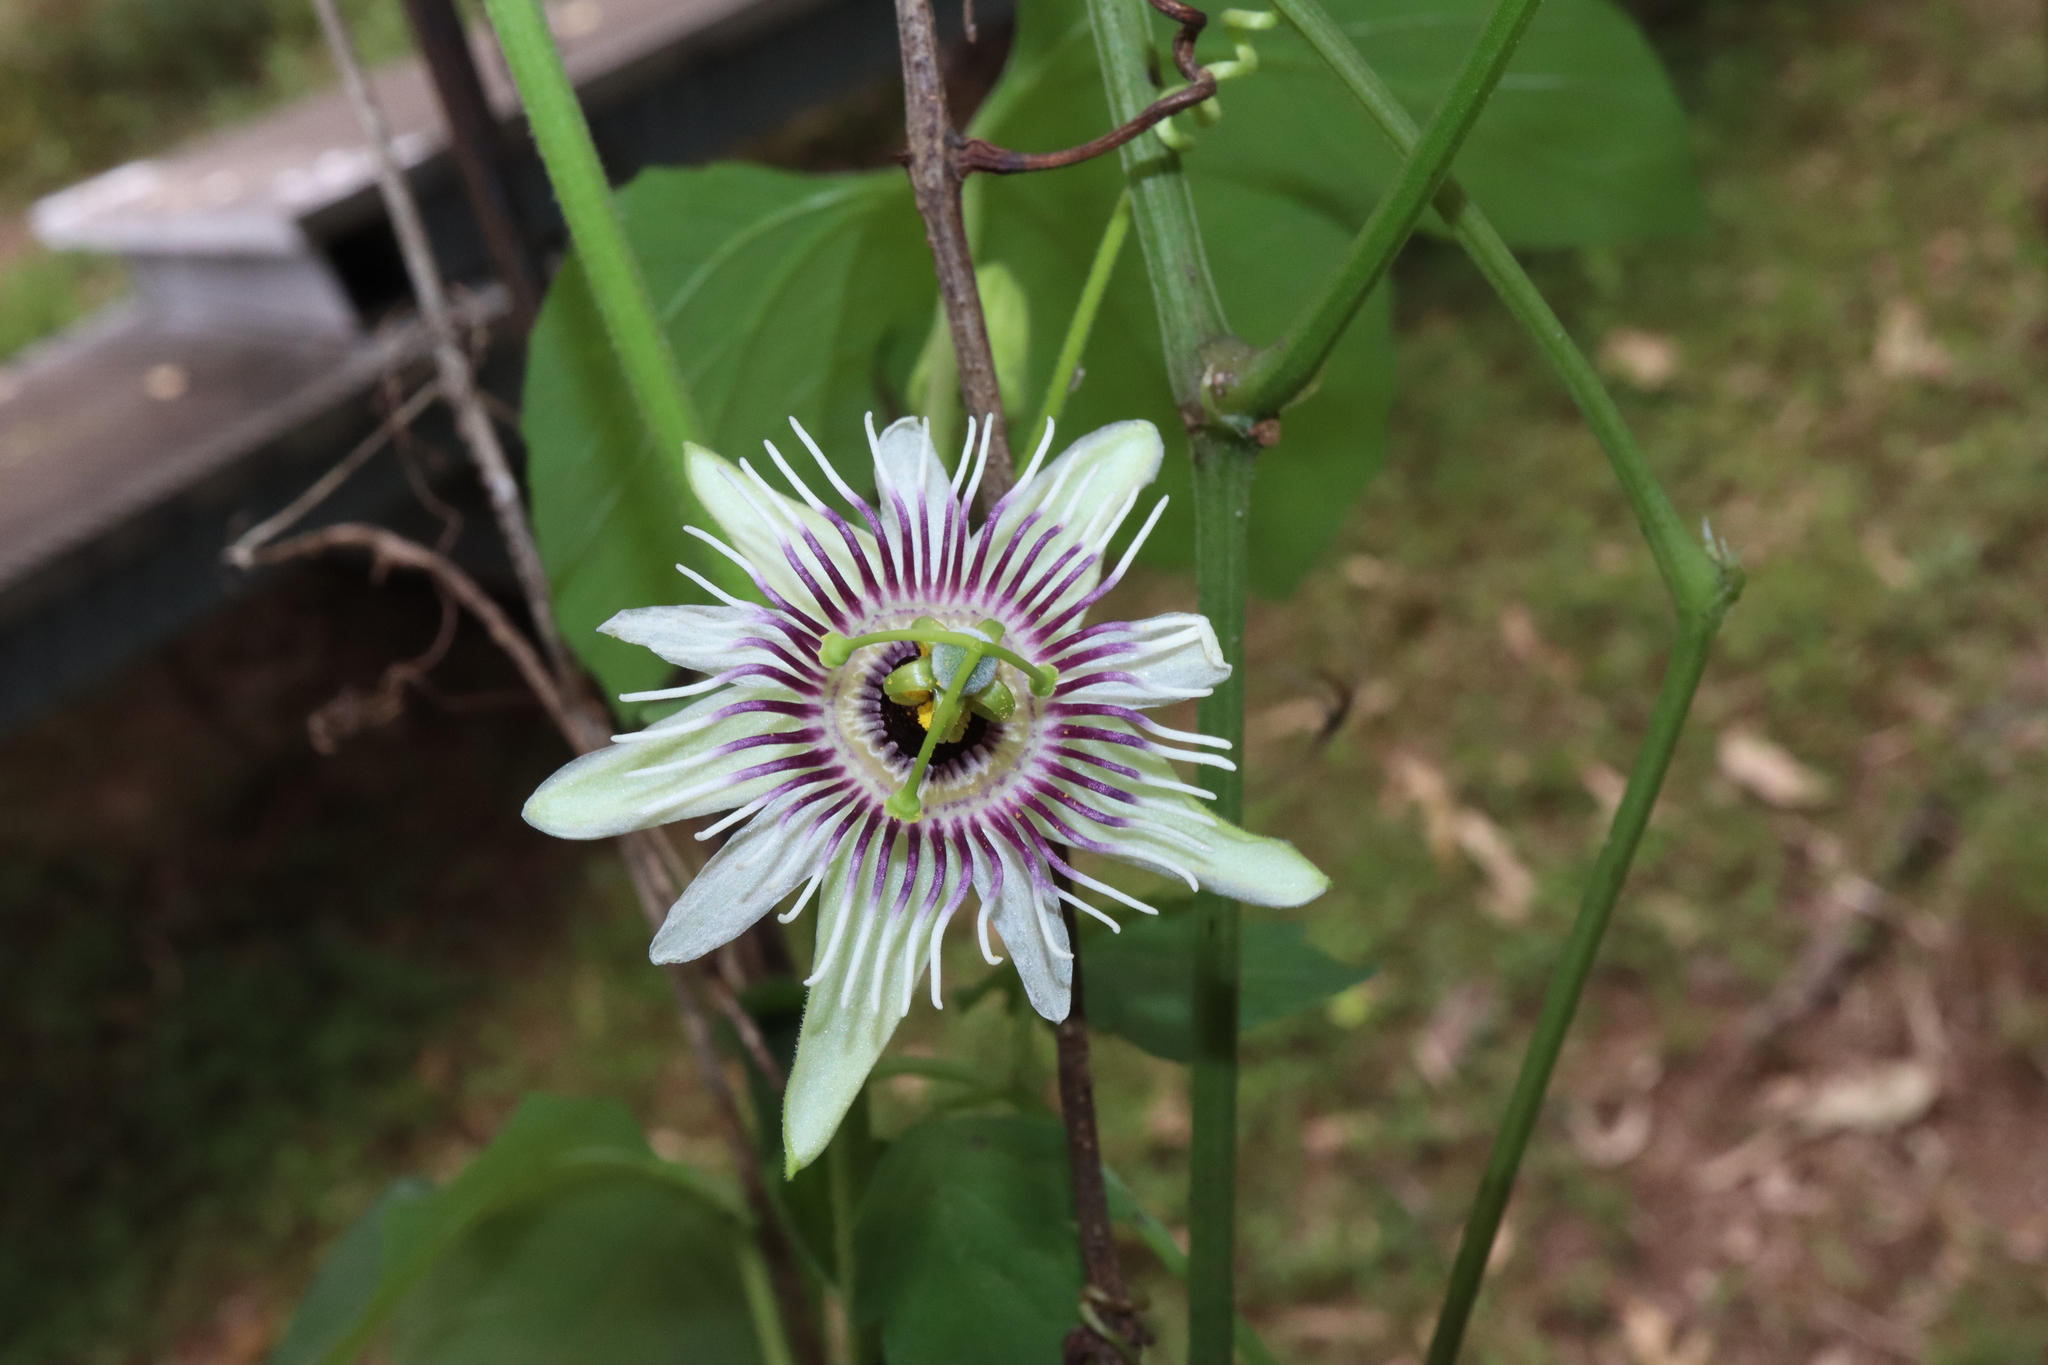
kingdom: Plantae
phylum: Tracheophyta
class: Magnoliopsida
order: Malpighiales
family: Passifloraceae
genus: Passiflora
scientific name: Passiflora morifolia
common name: Woodland passionflower
